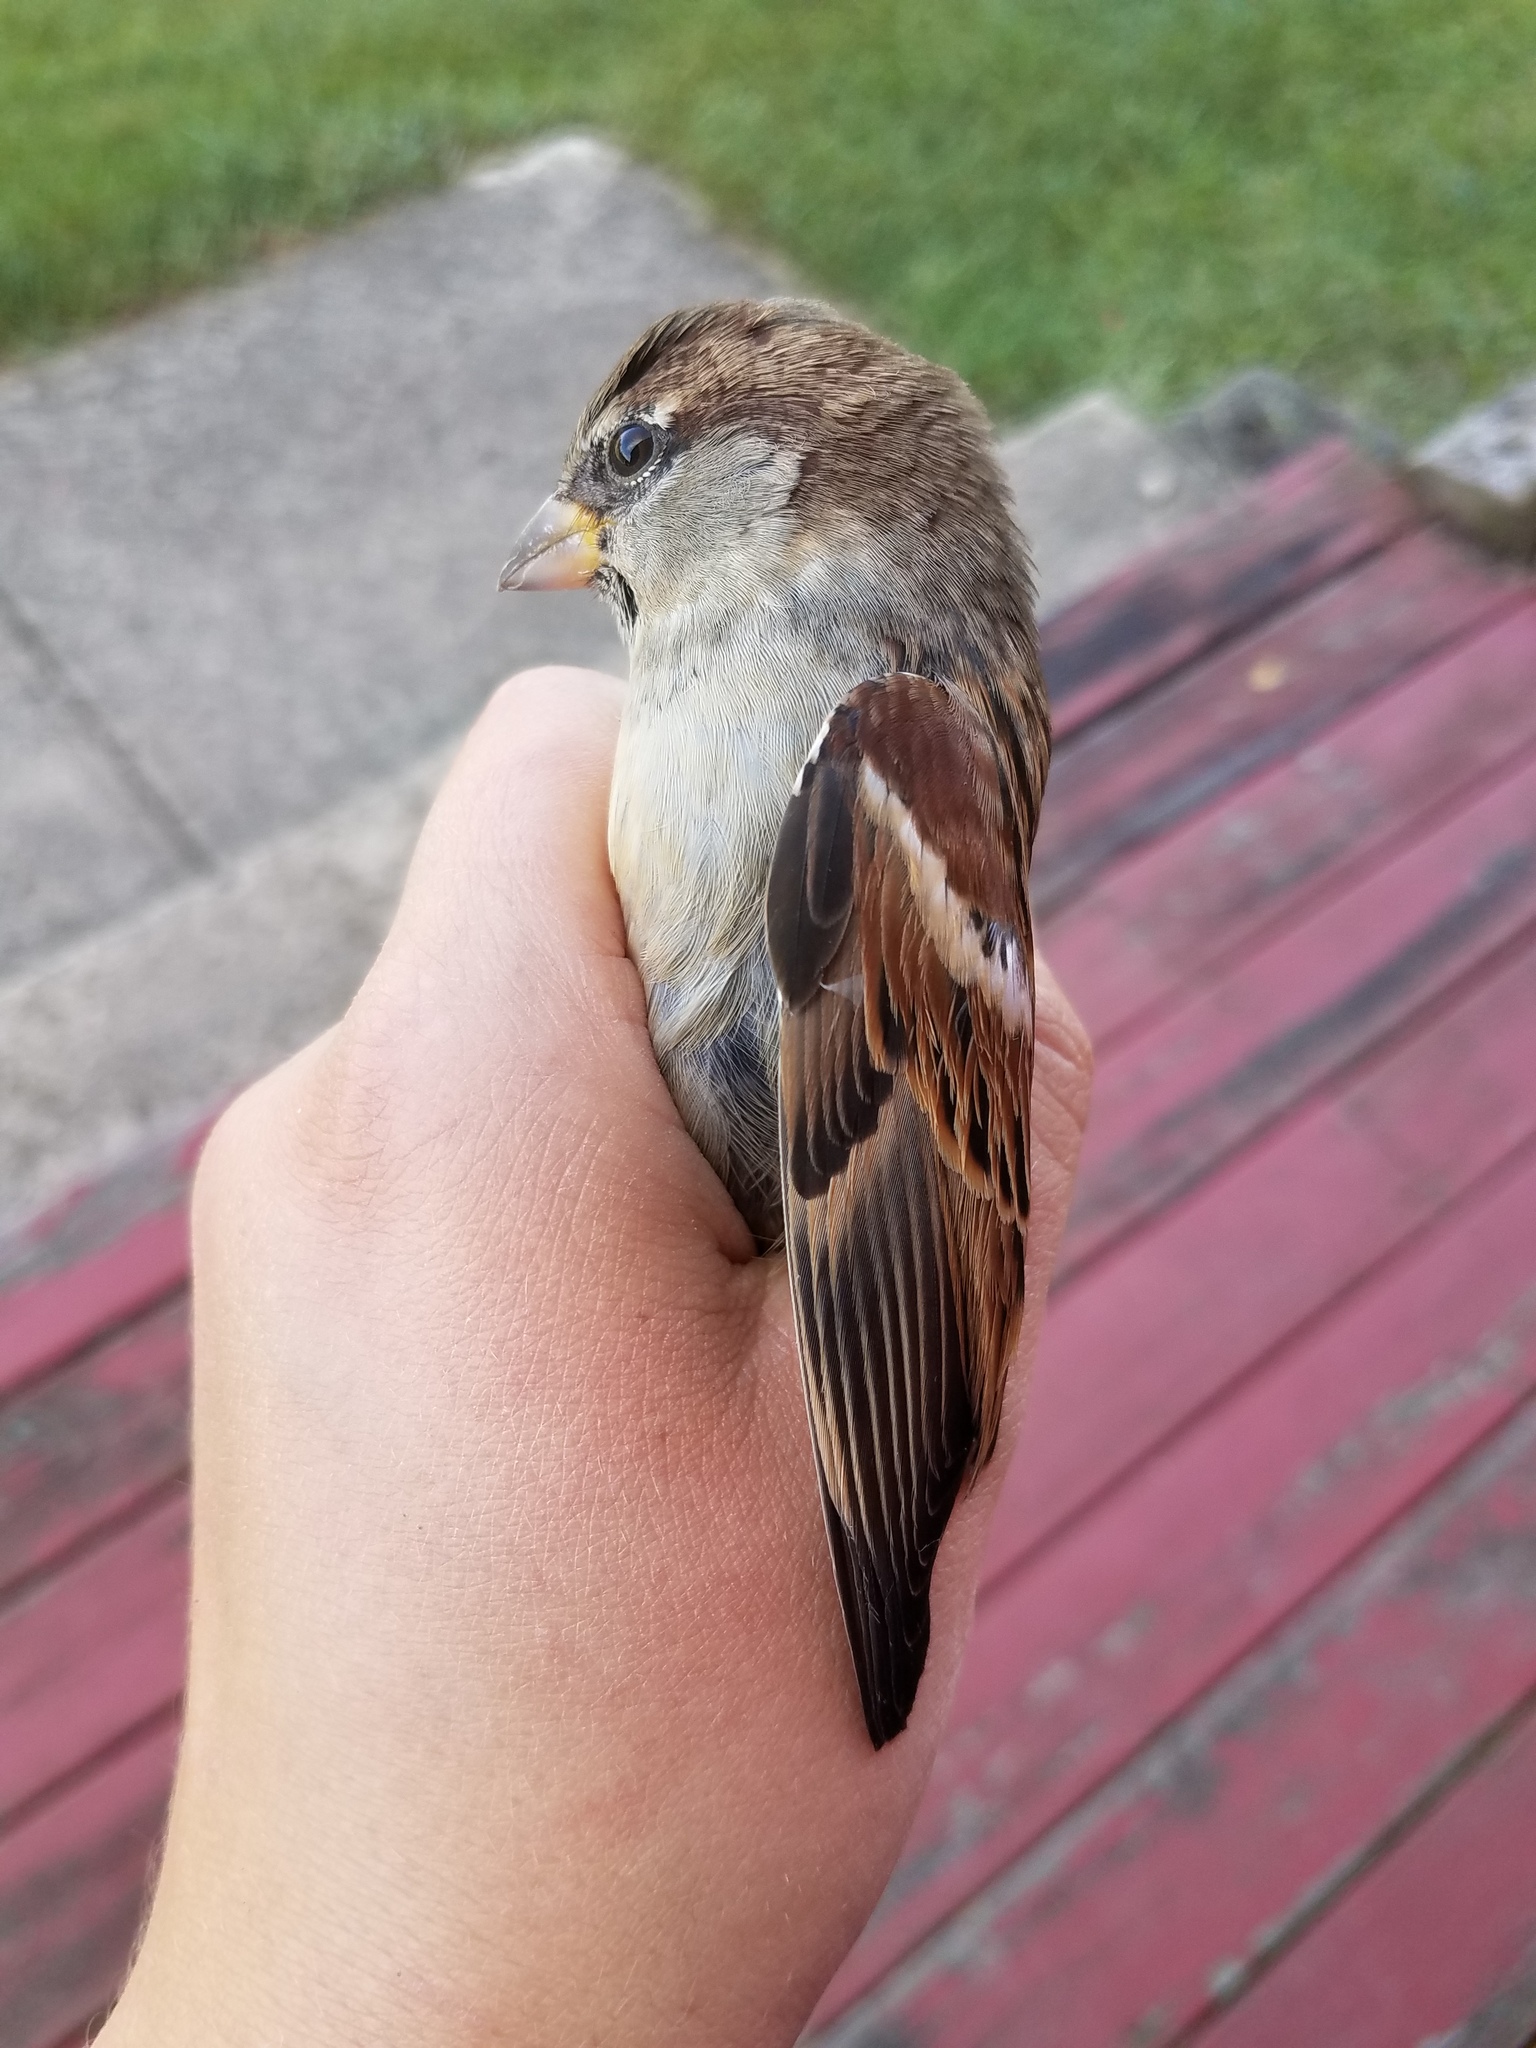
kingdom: Animalia
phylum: Chordata
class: Aves
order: Passeriformes
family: Passeridae
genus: Passer
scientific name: Passer domesticus
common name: House sparrow
